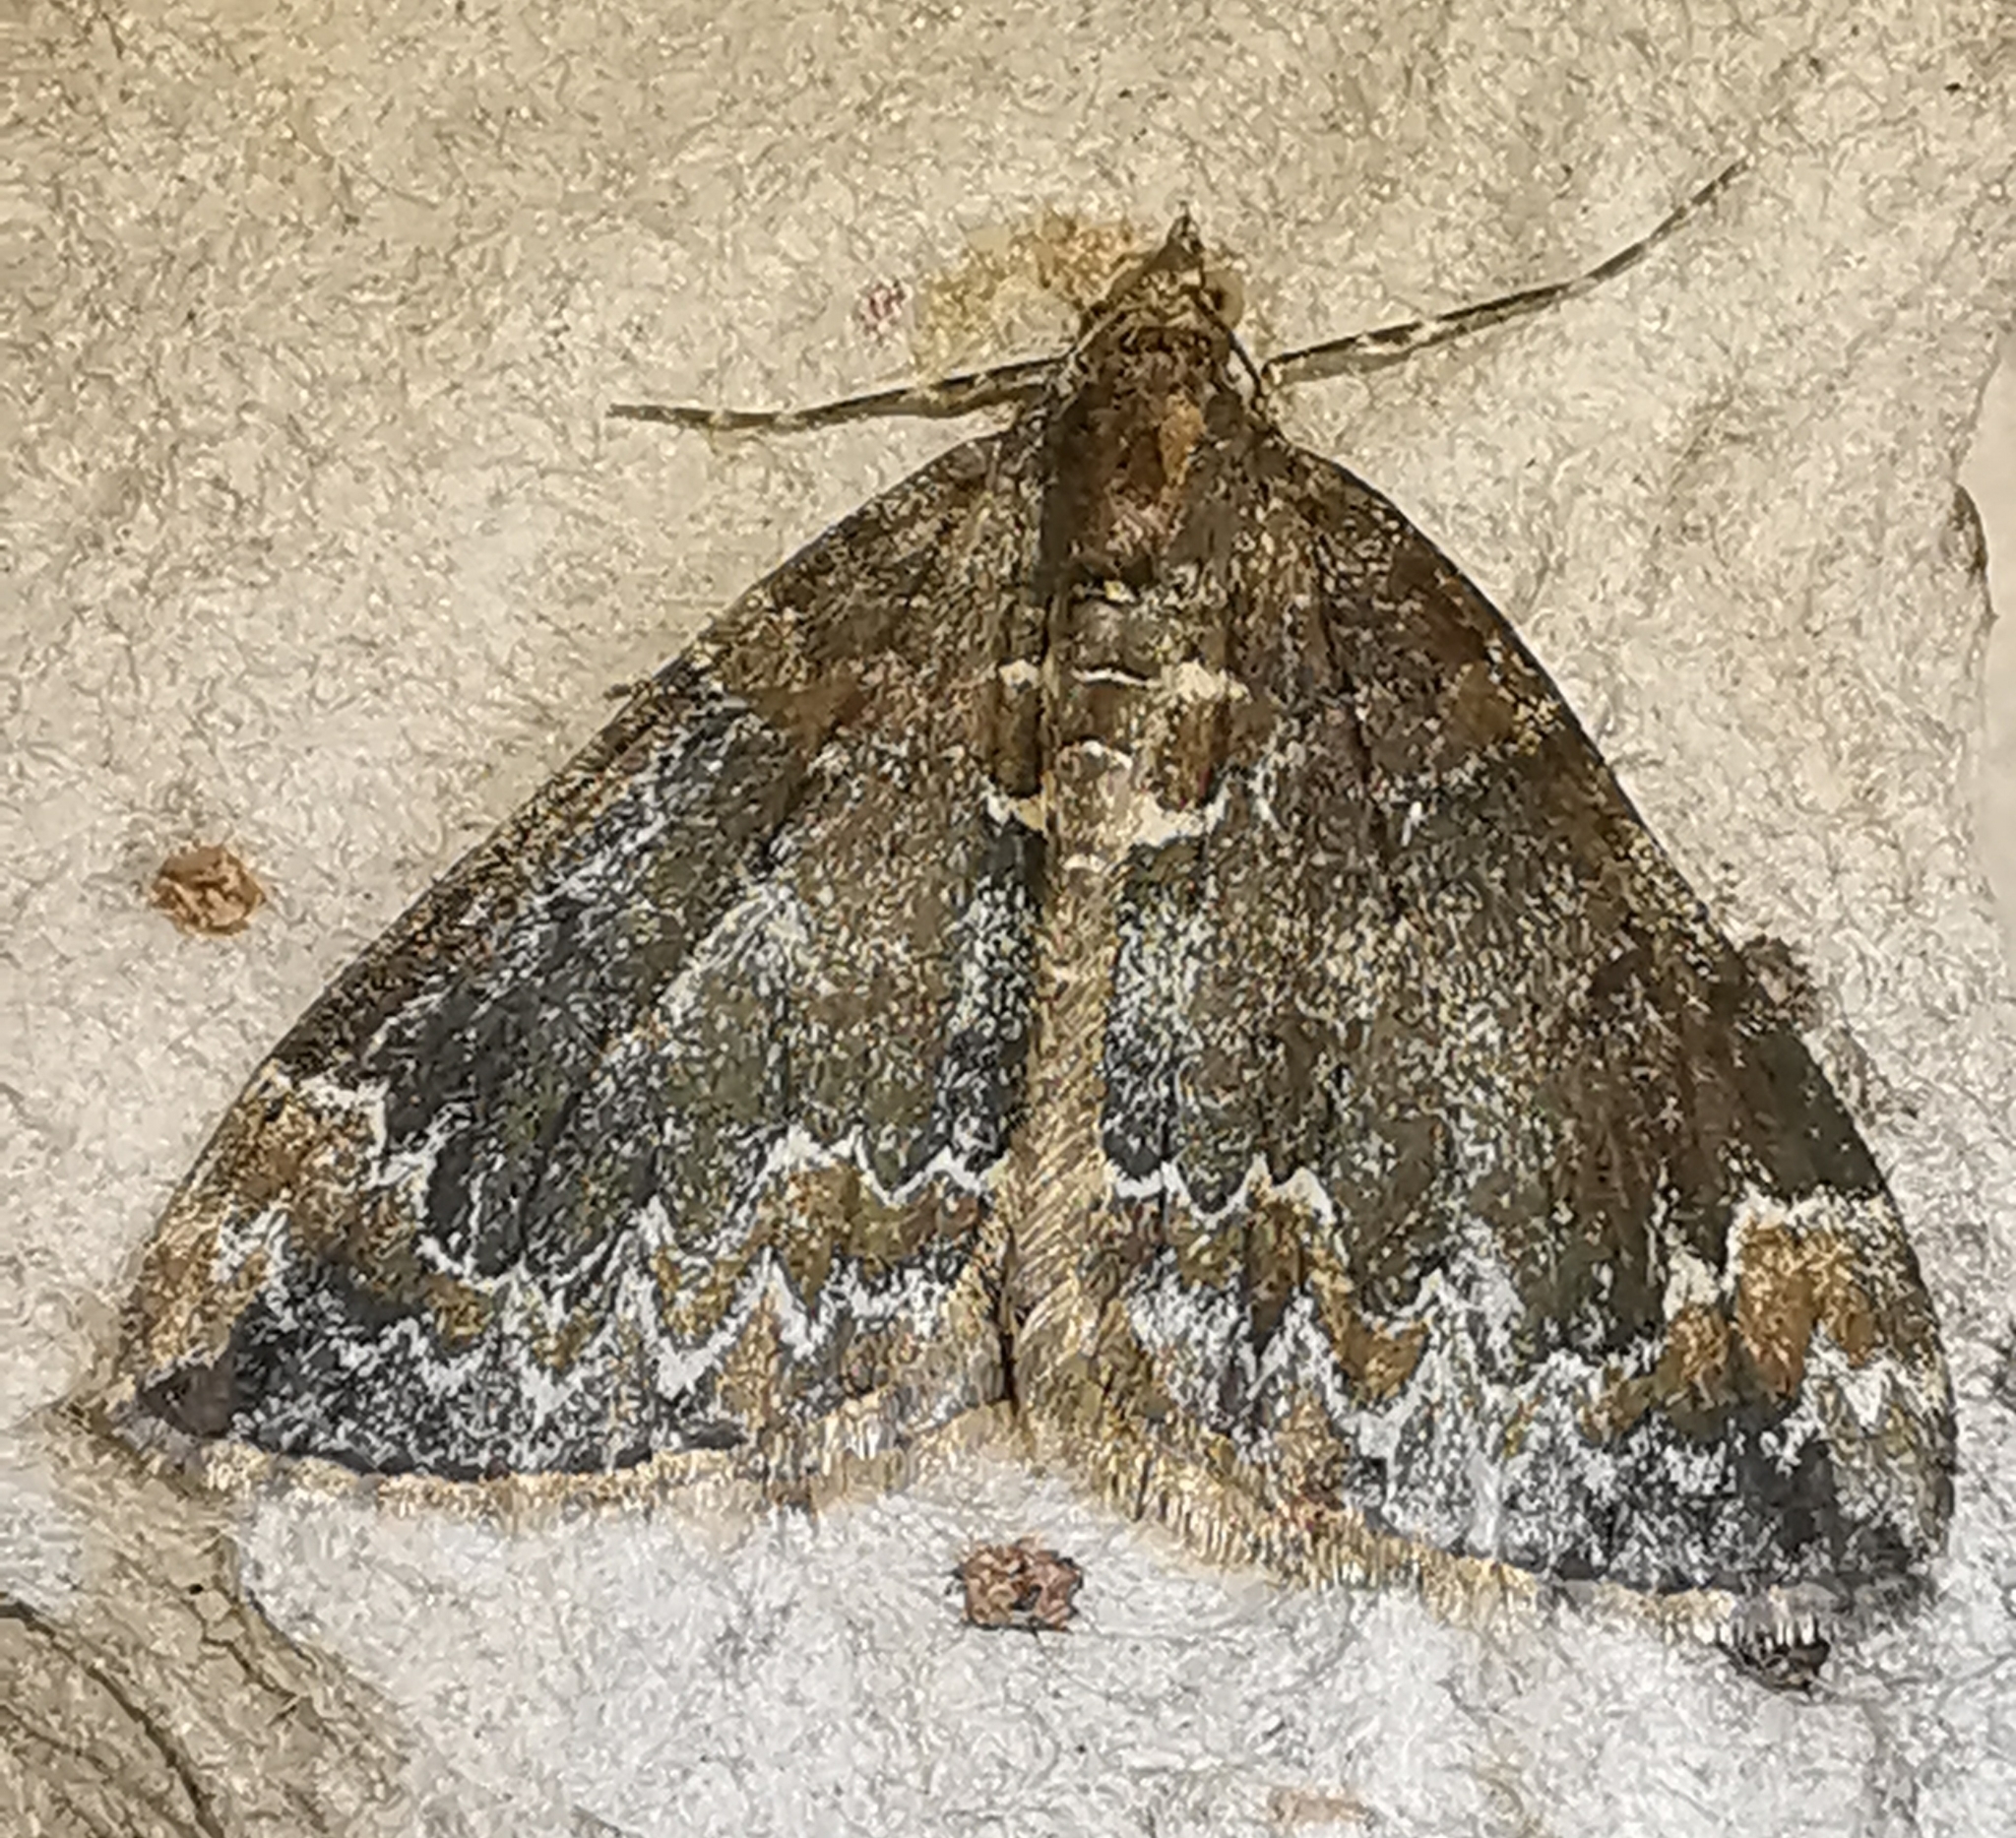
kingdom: Animalia
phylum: Arthropoda
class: Insecta
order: Lepidoptera
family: Geometridae
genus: Dysstroma
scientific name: Dysstroma truncata
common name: Common marbled carpet
